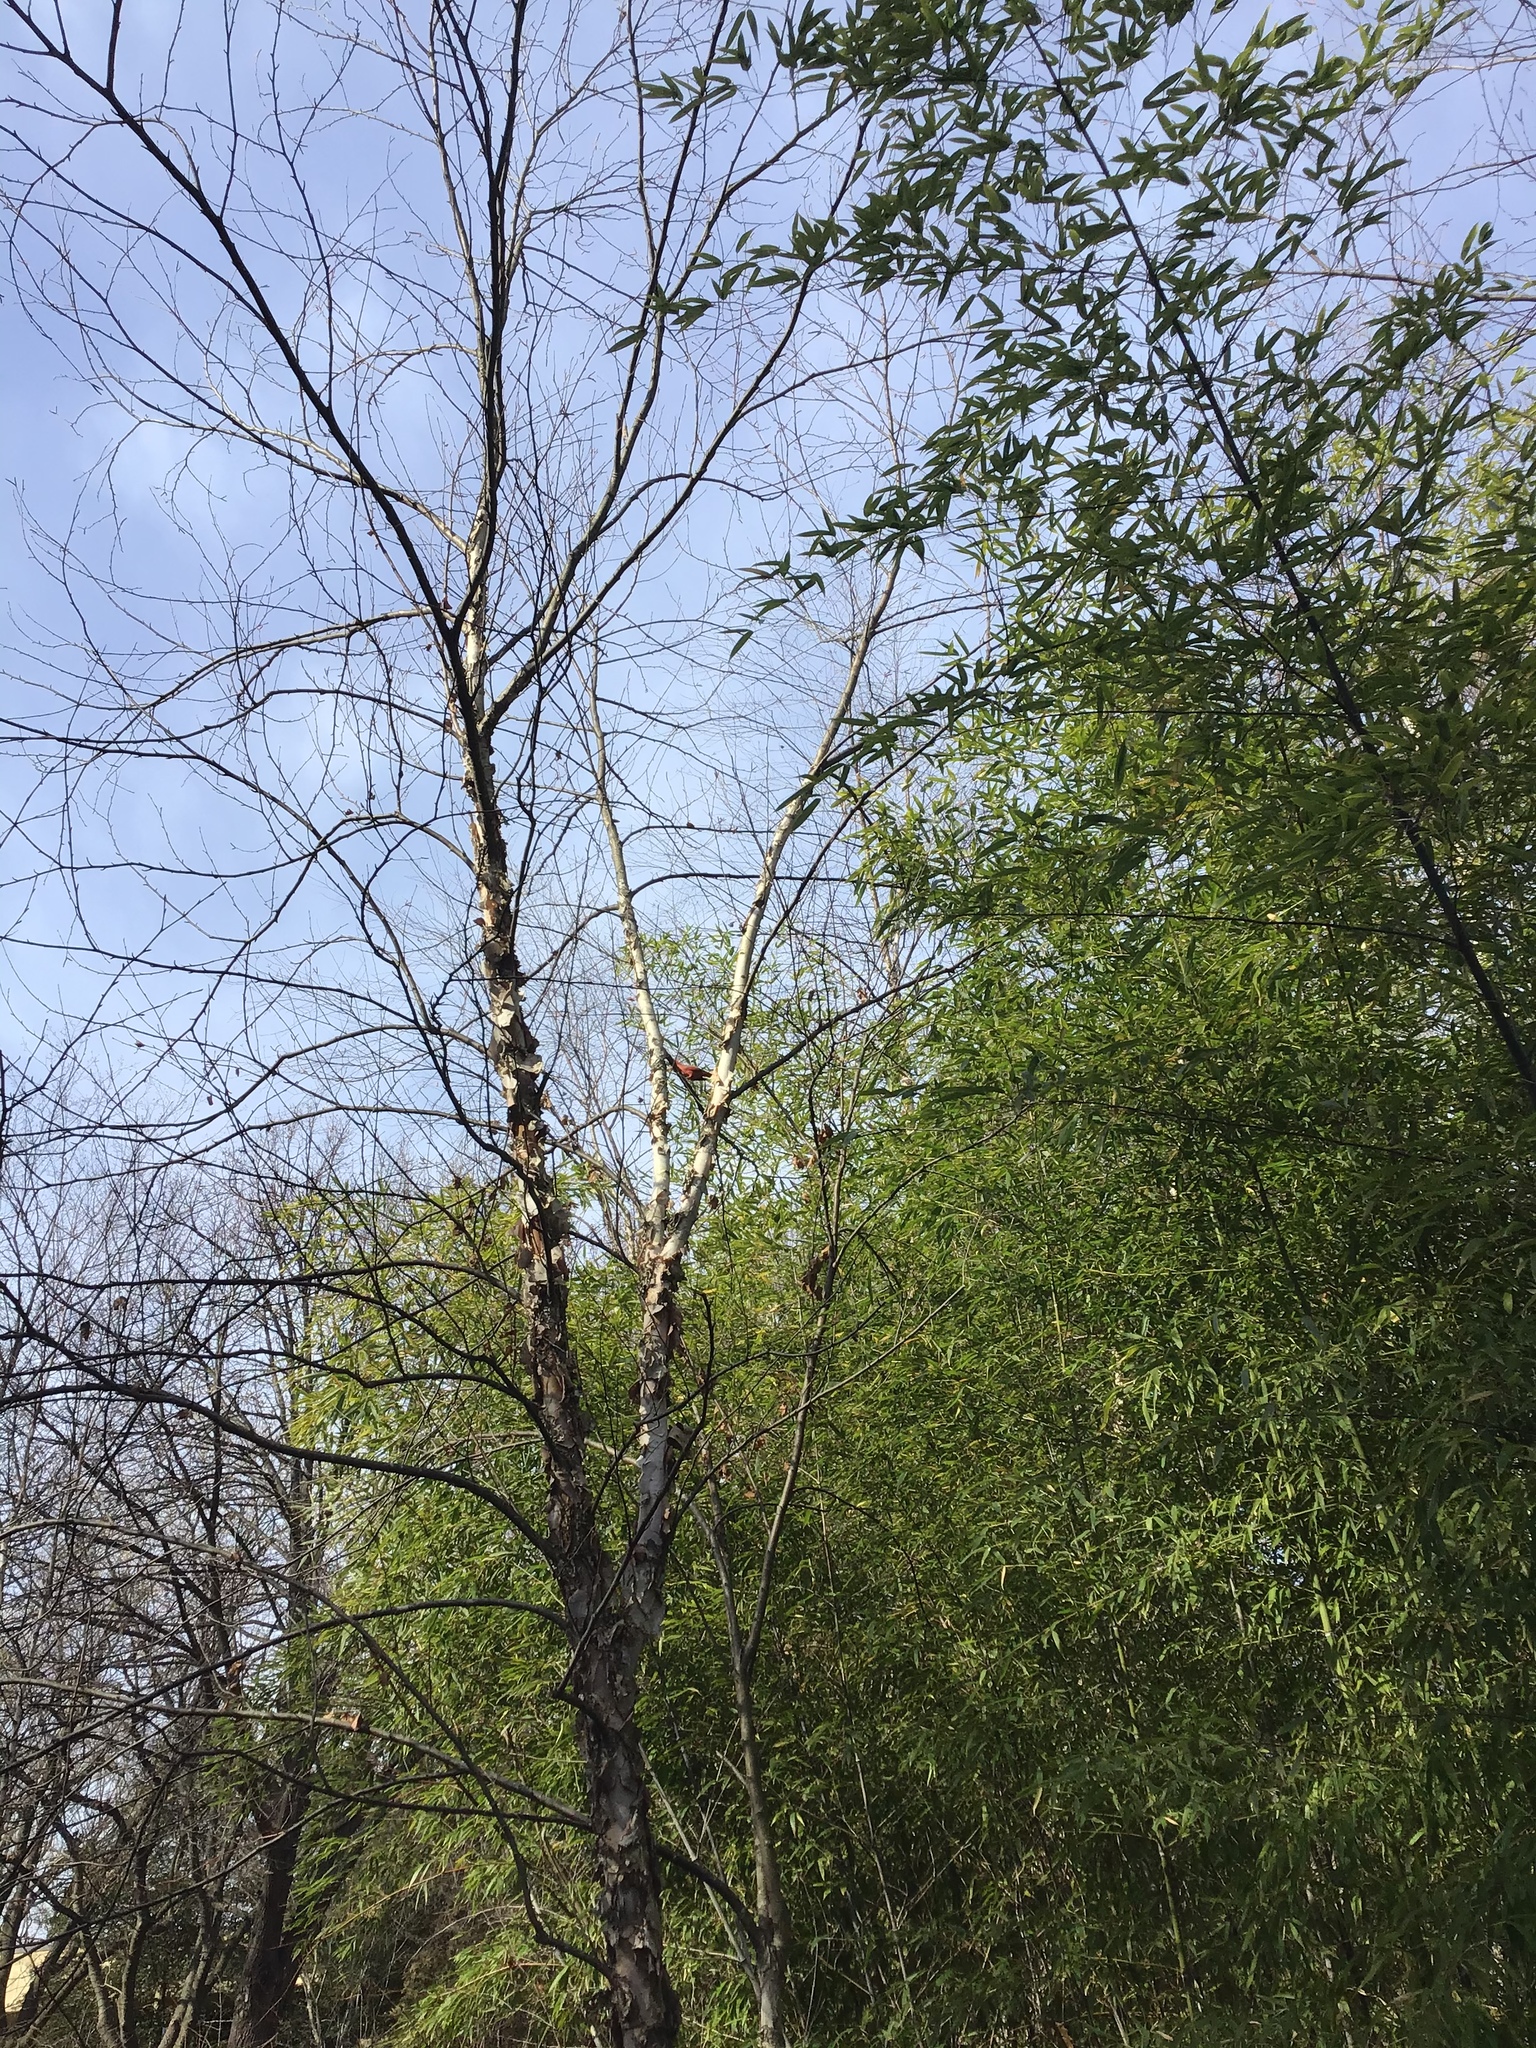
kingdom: Animalia
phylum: Chordata
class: Aves
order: Passeriformes
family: Cardinalidae
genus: Cardinalis
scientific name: Cardinalis cardinalis
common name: Northern cardinal
